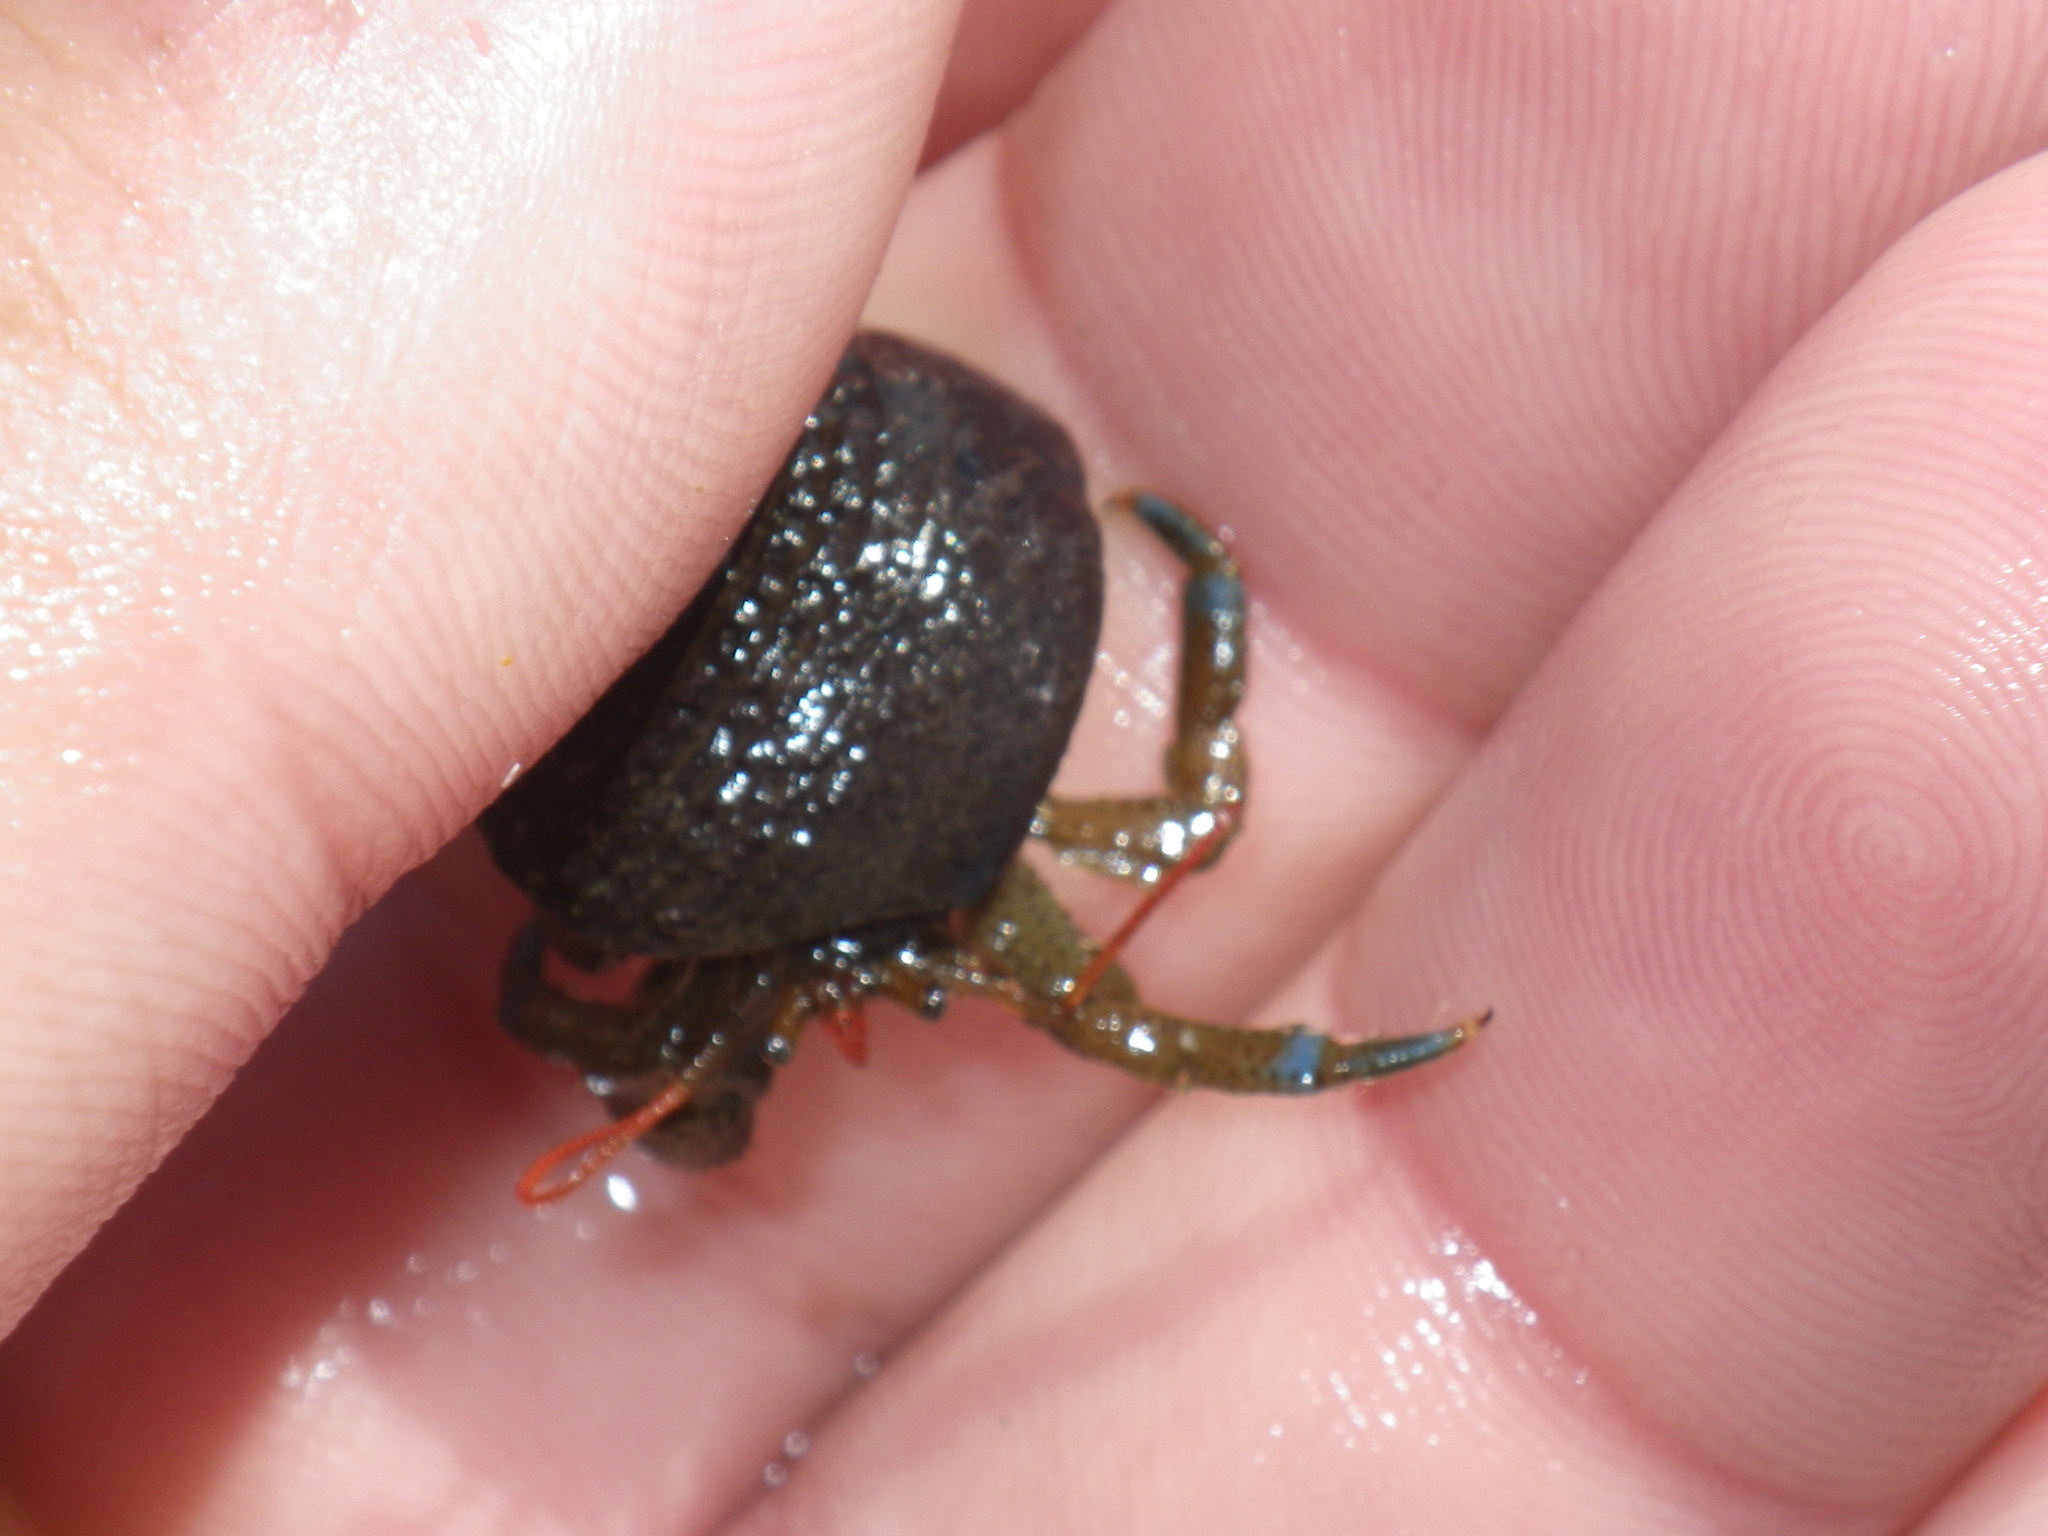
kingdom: Animalia
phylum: Arthropoda
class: Malacostraca
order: Decapoda
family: Paguridae
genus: Pagurus
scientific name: Pagurus samuelis
